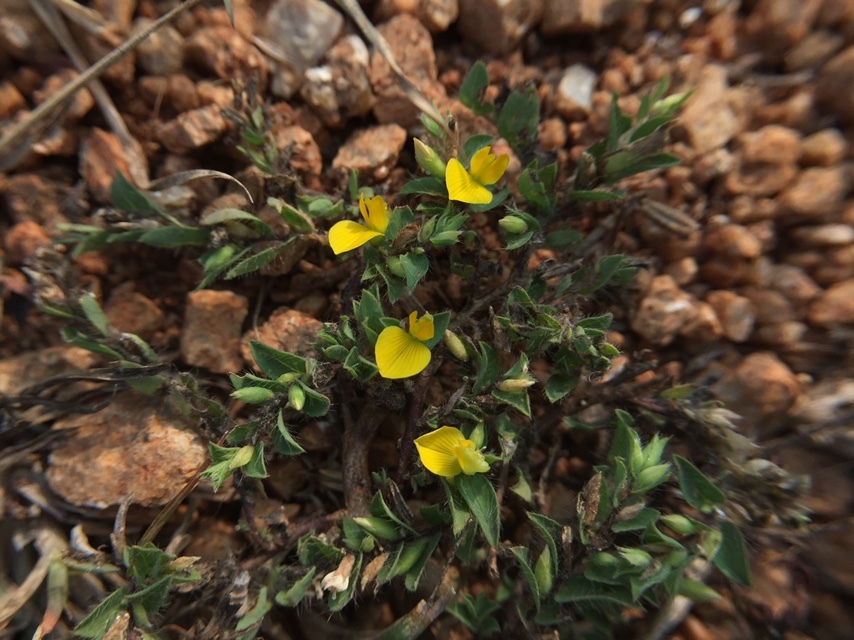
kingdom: Plantae
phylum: Tracheophyta
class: Magnoliopsida
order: Fabales
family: Fabaceae
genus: Crotalaria
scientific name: Crotalaria hebecarpa
